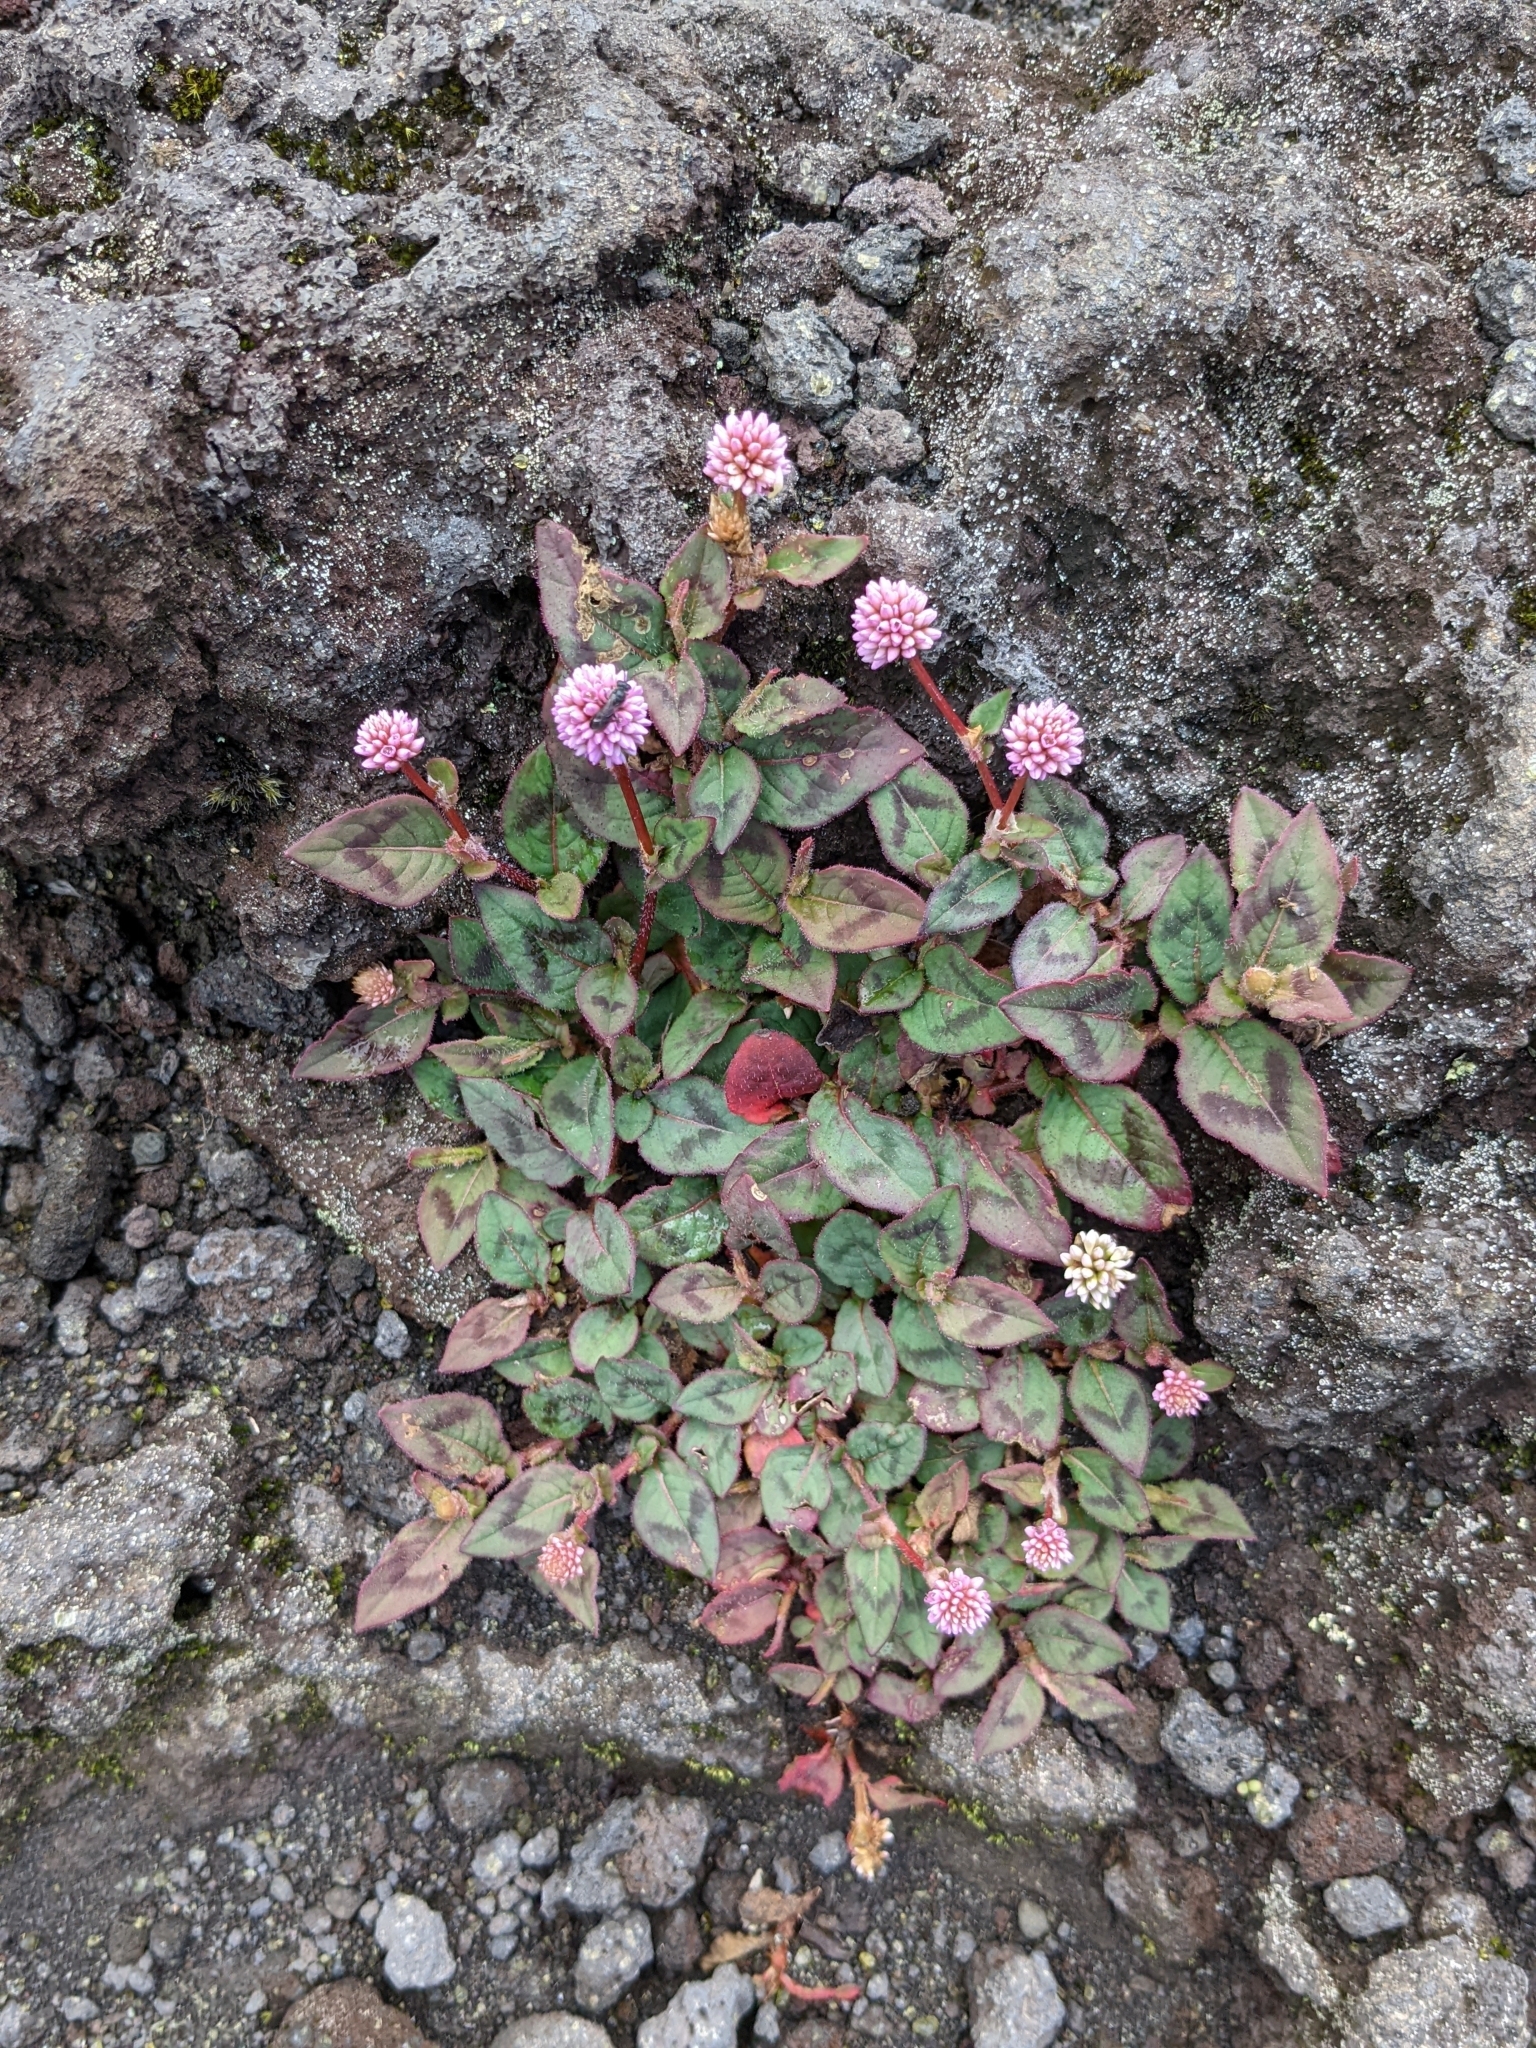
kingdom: Plantae
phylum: Tracheophyta
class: Magnoliopsida
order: Caryophyllales
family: Polygonaceae
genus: Persicaria
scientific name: Persicaria capitata
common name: Pinkhead smartweed
